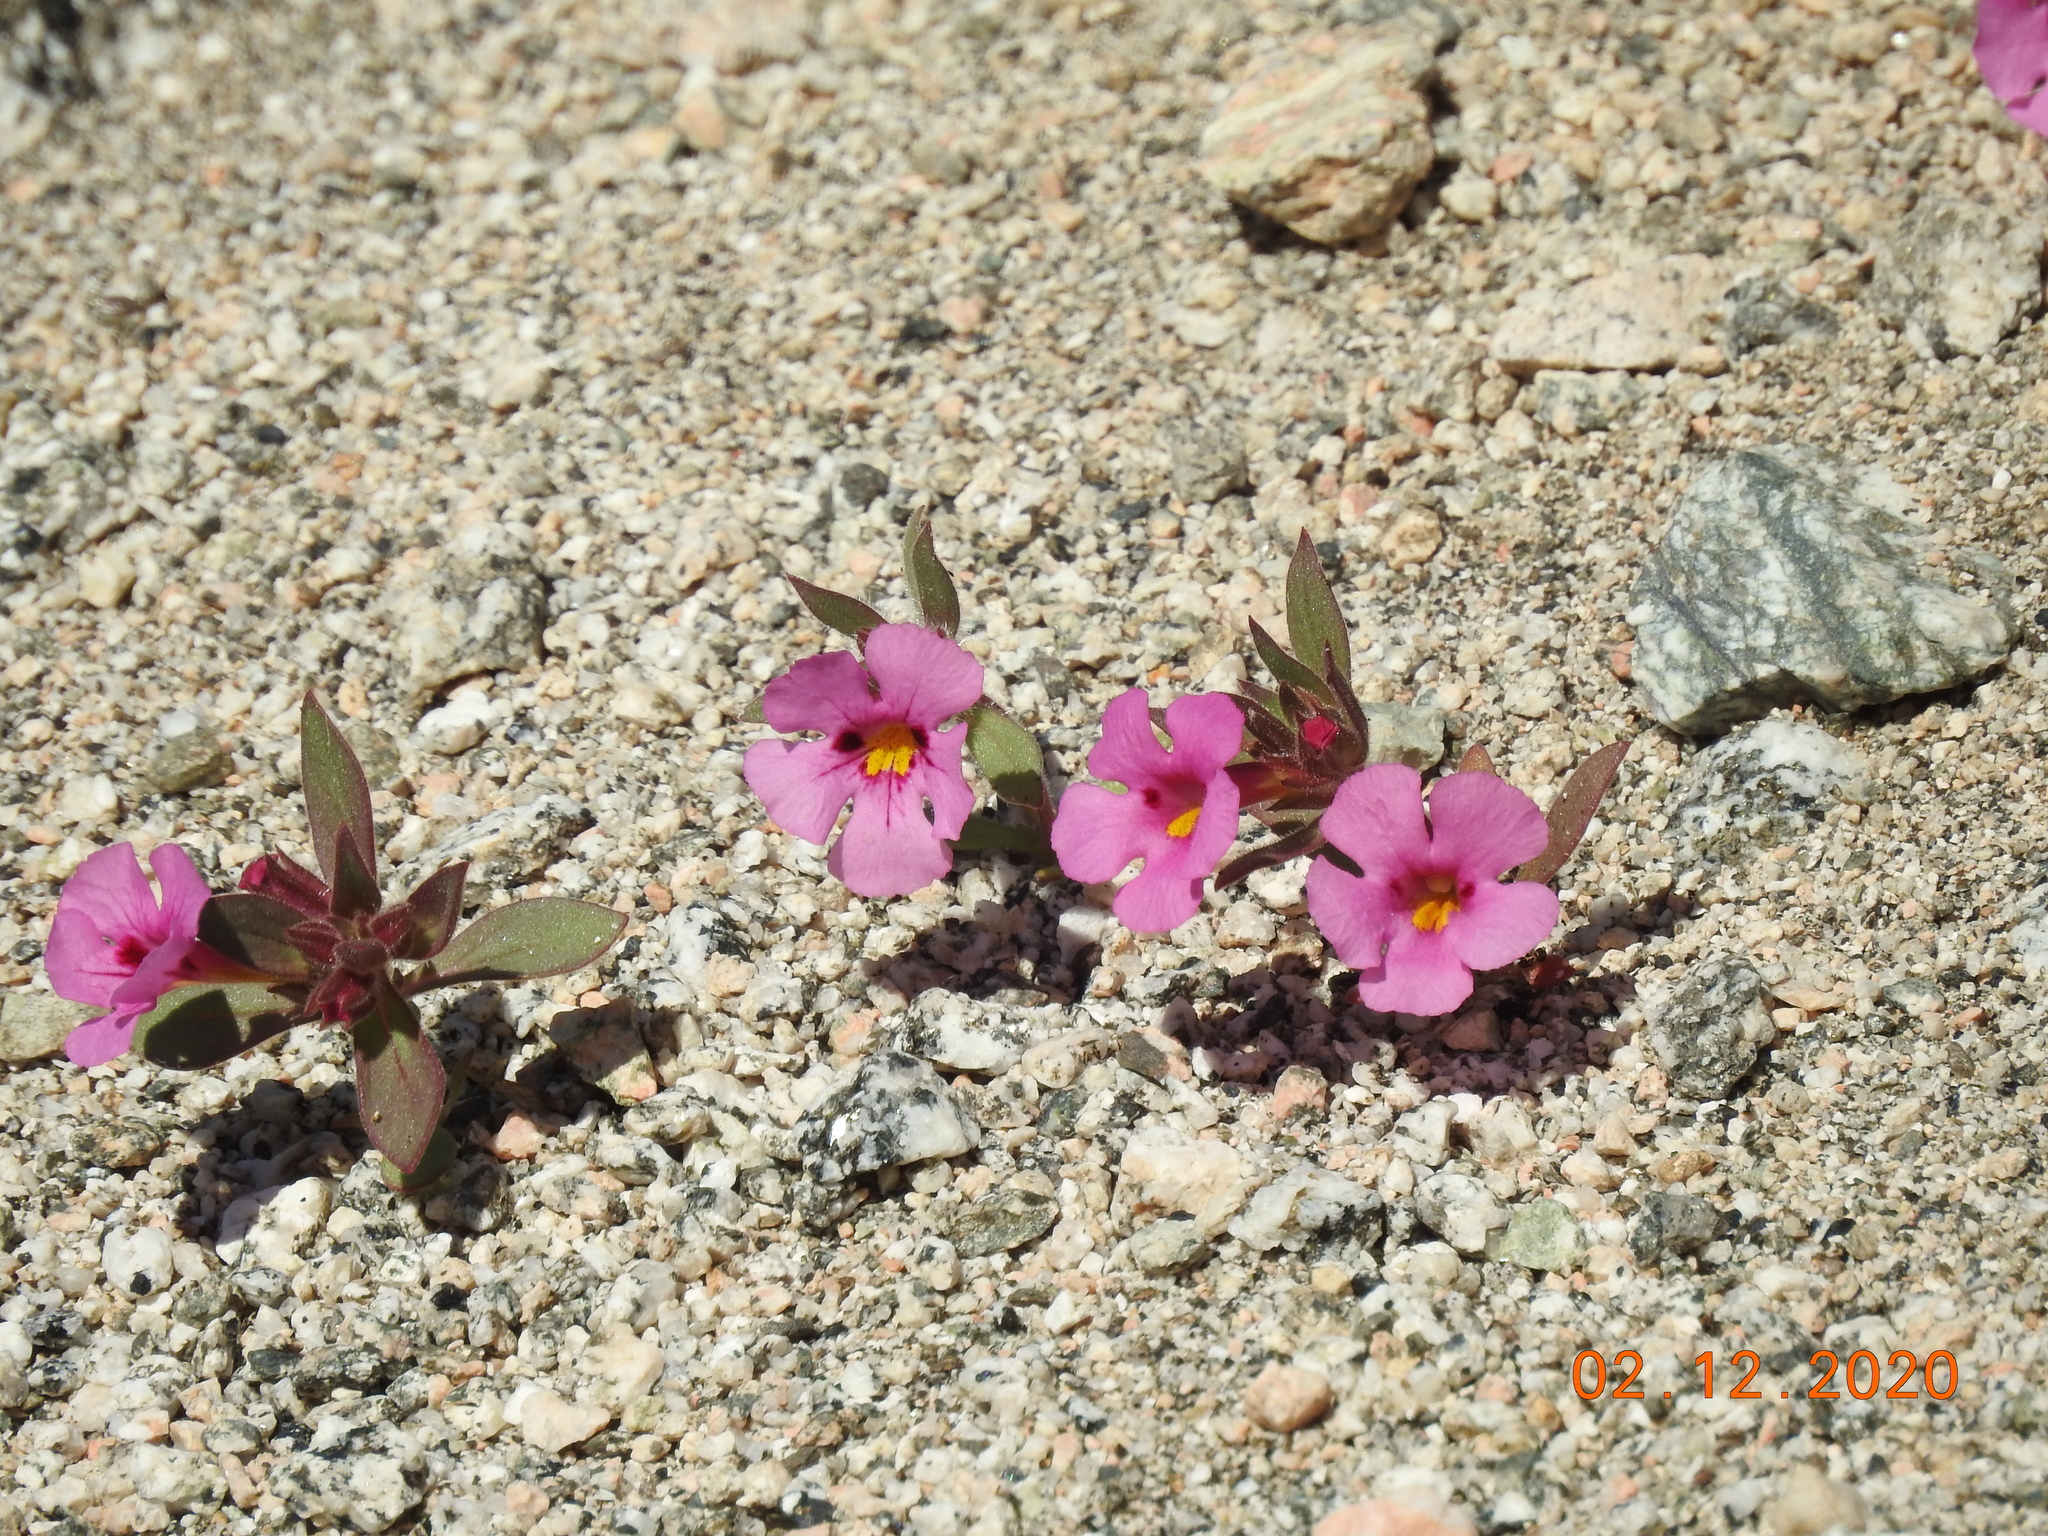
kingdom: Plantae
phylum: Tracheophyta
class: Magnoliopsida
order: Lamiales
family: Phrymaceae
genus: Diplacus
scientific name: Diplacus bigelovii
